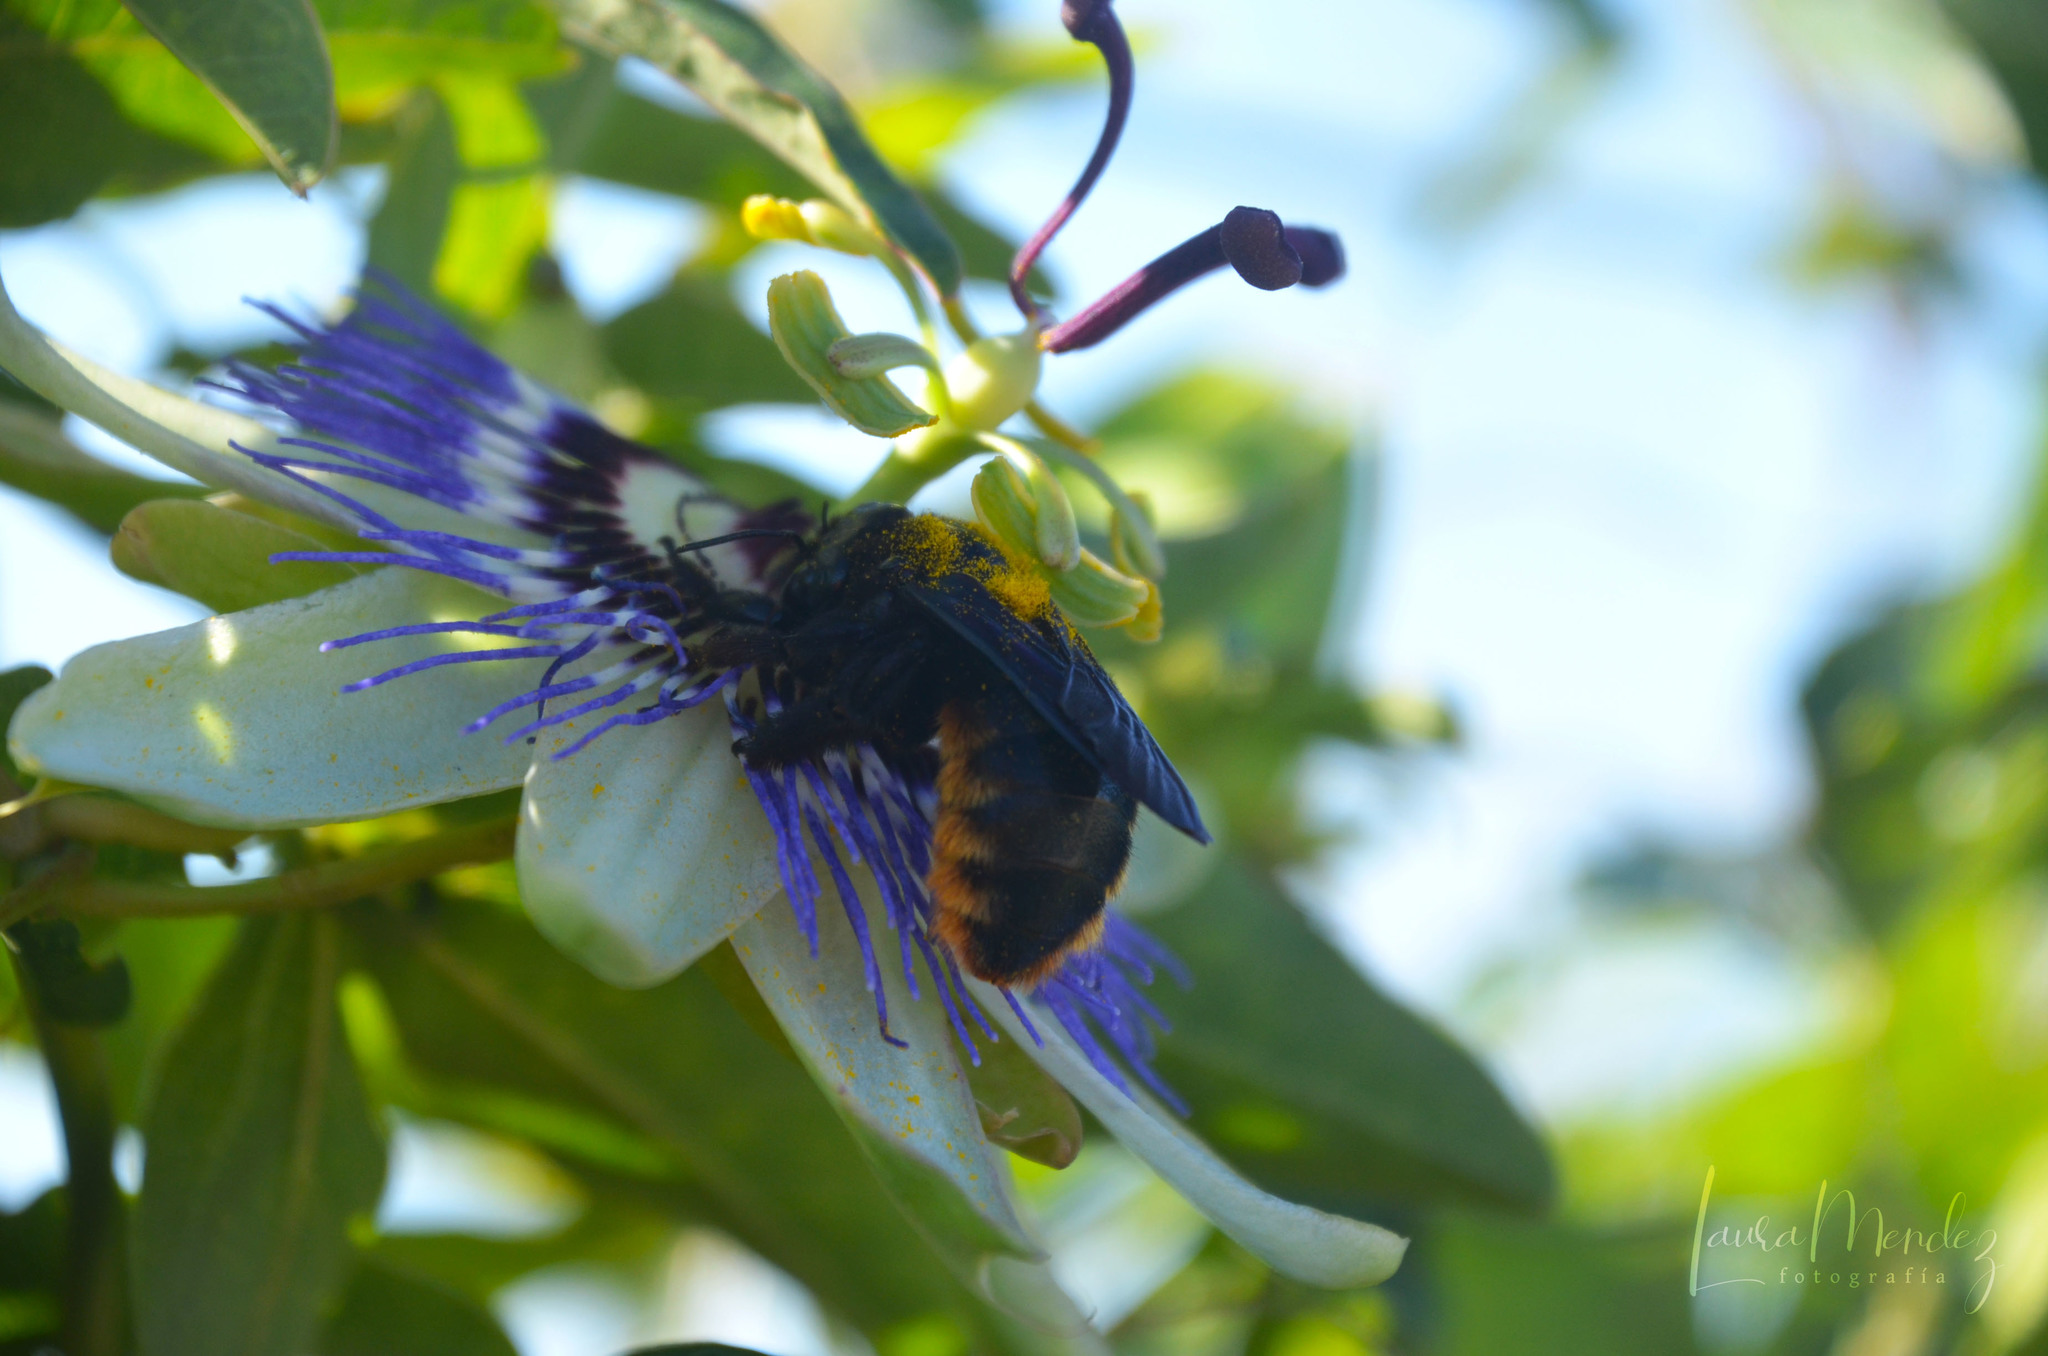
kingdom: Animalia
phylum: Arthropoda
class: Insecta
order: Hymenoptera
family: Apidae
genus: Xylocopa
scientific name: Xylocopa augusti
